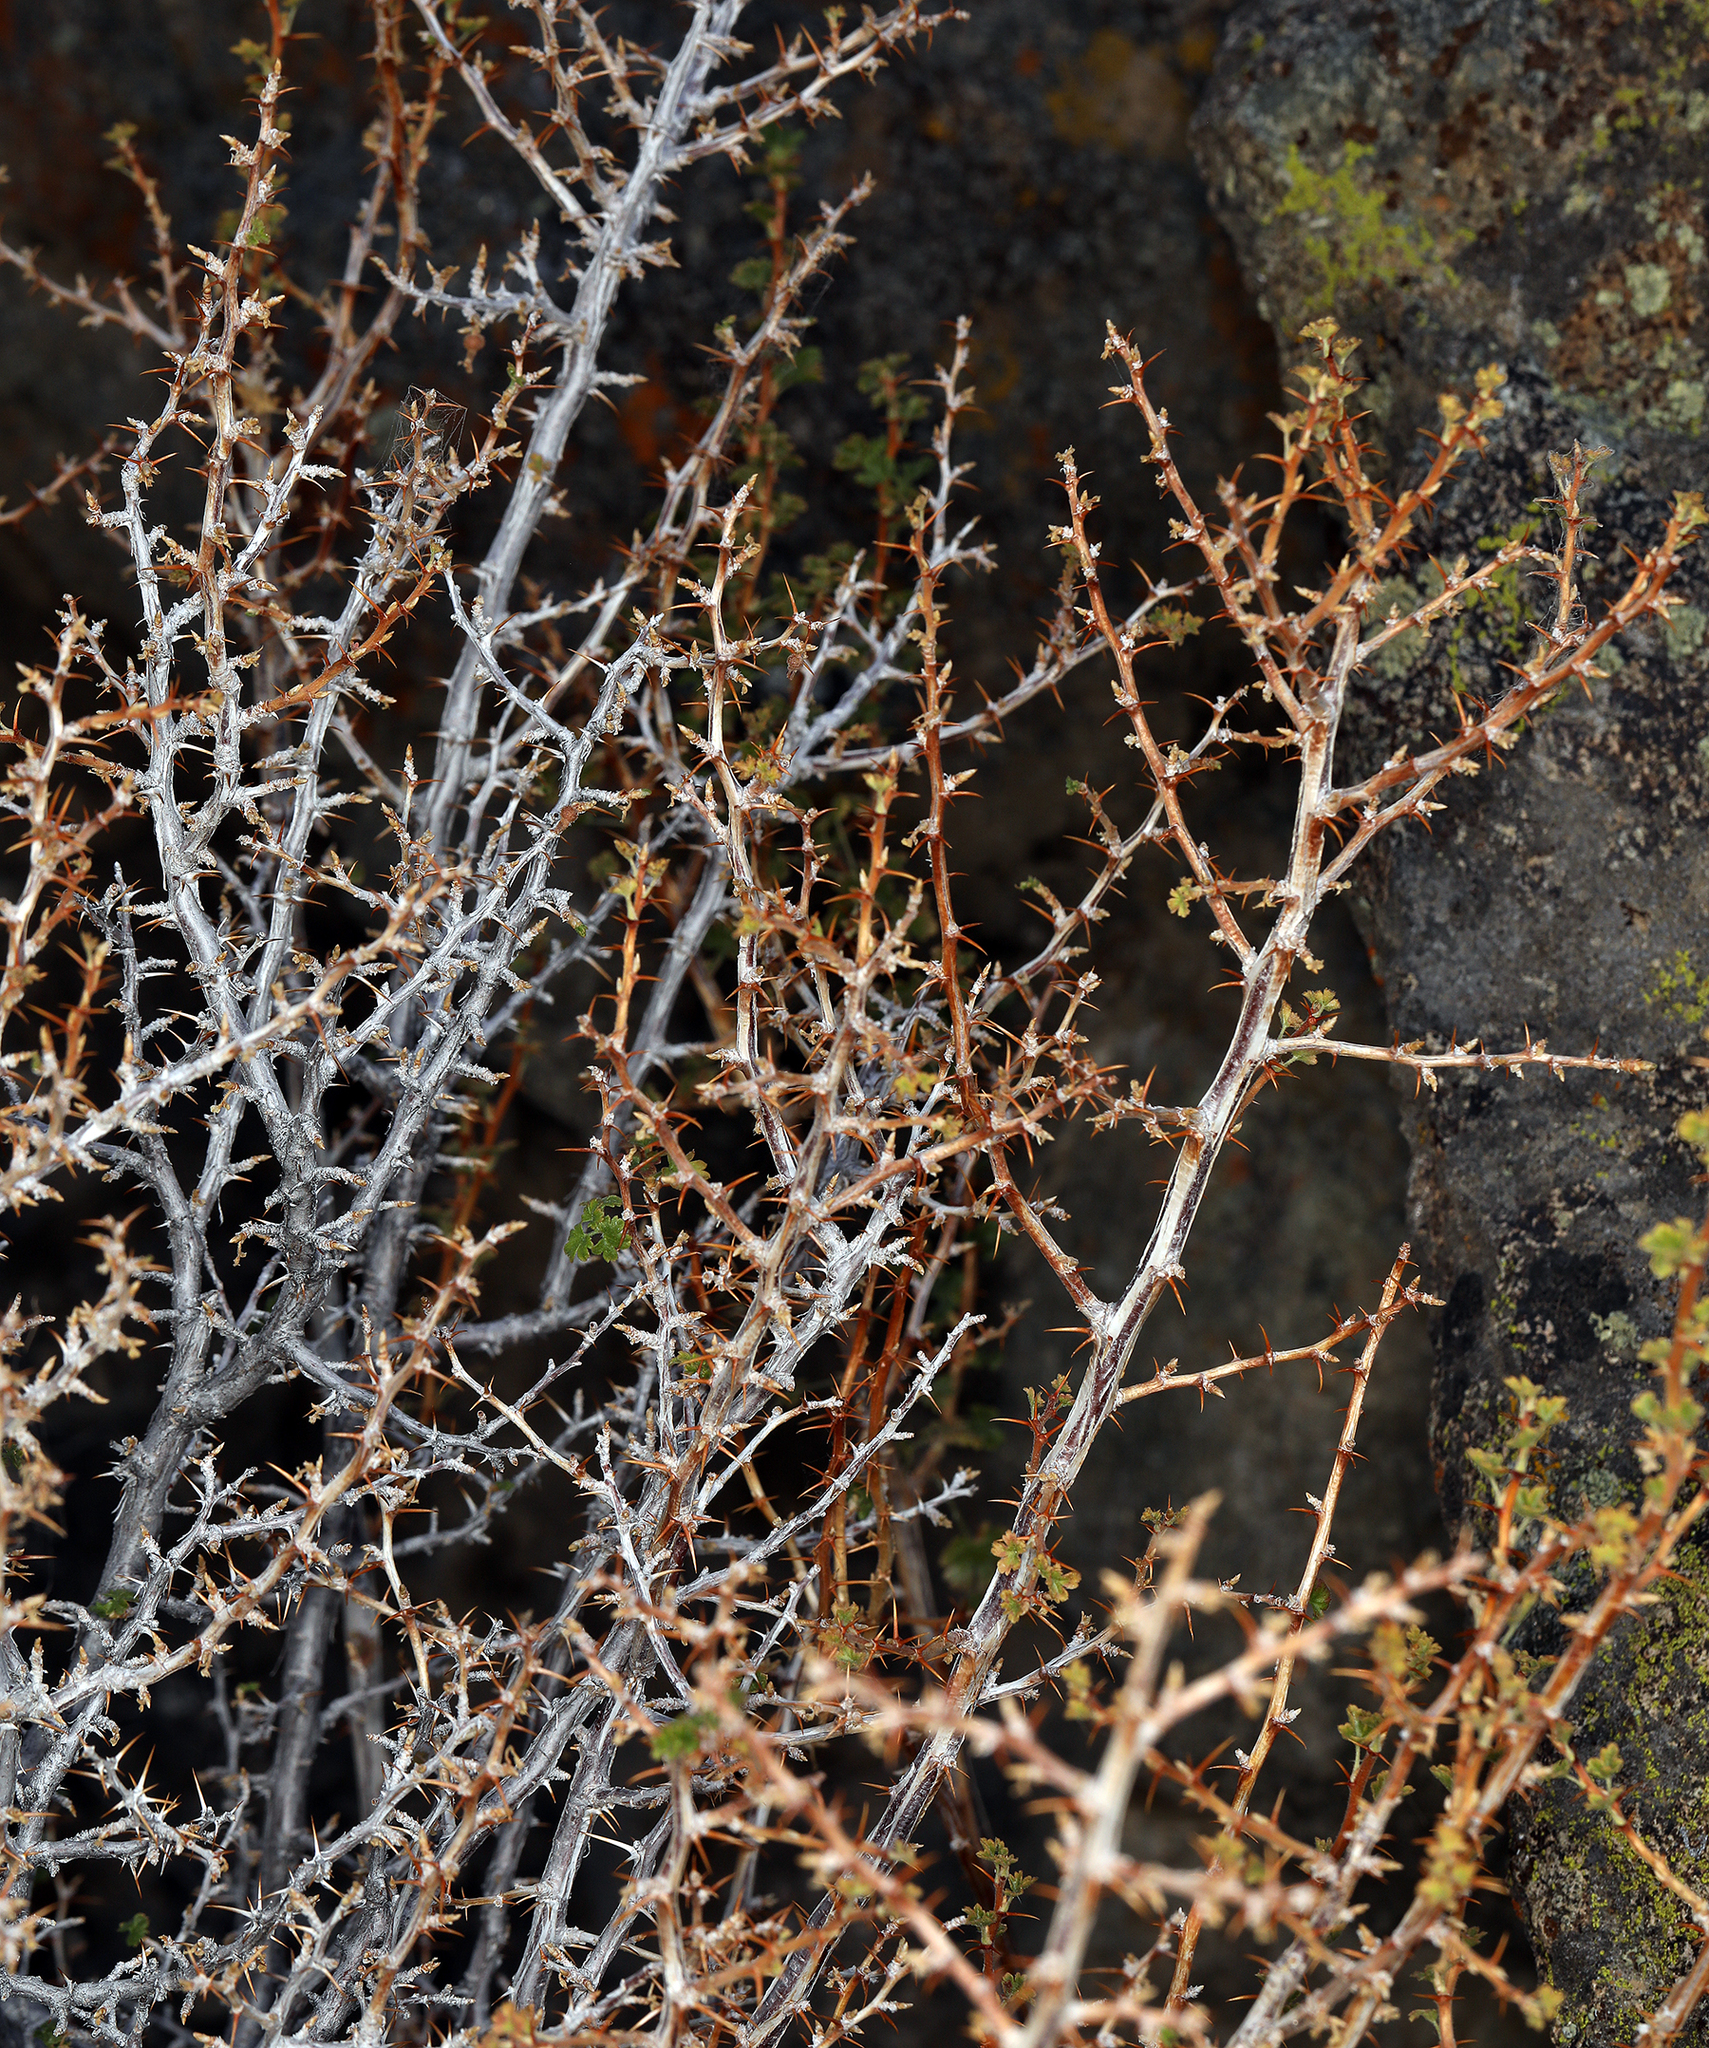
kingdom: Plantae
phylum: Tracheophyta
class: Magnoliopsida
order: Saxifragales
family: Grossulariaceae
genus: Ribes
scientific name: Ribes velutinum
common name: Desert gooseberry
